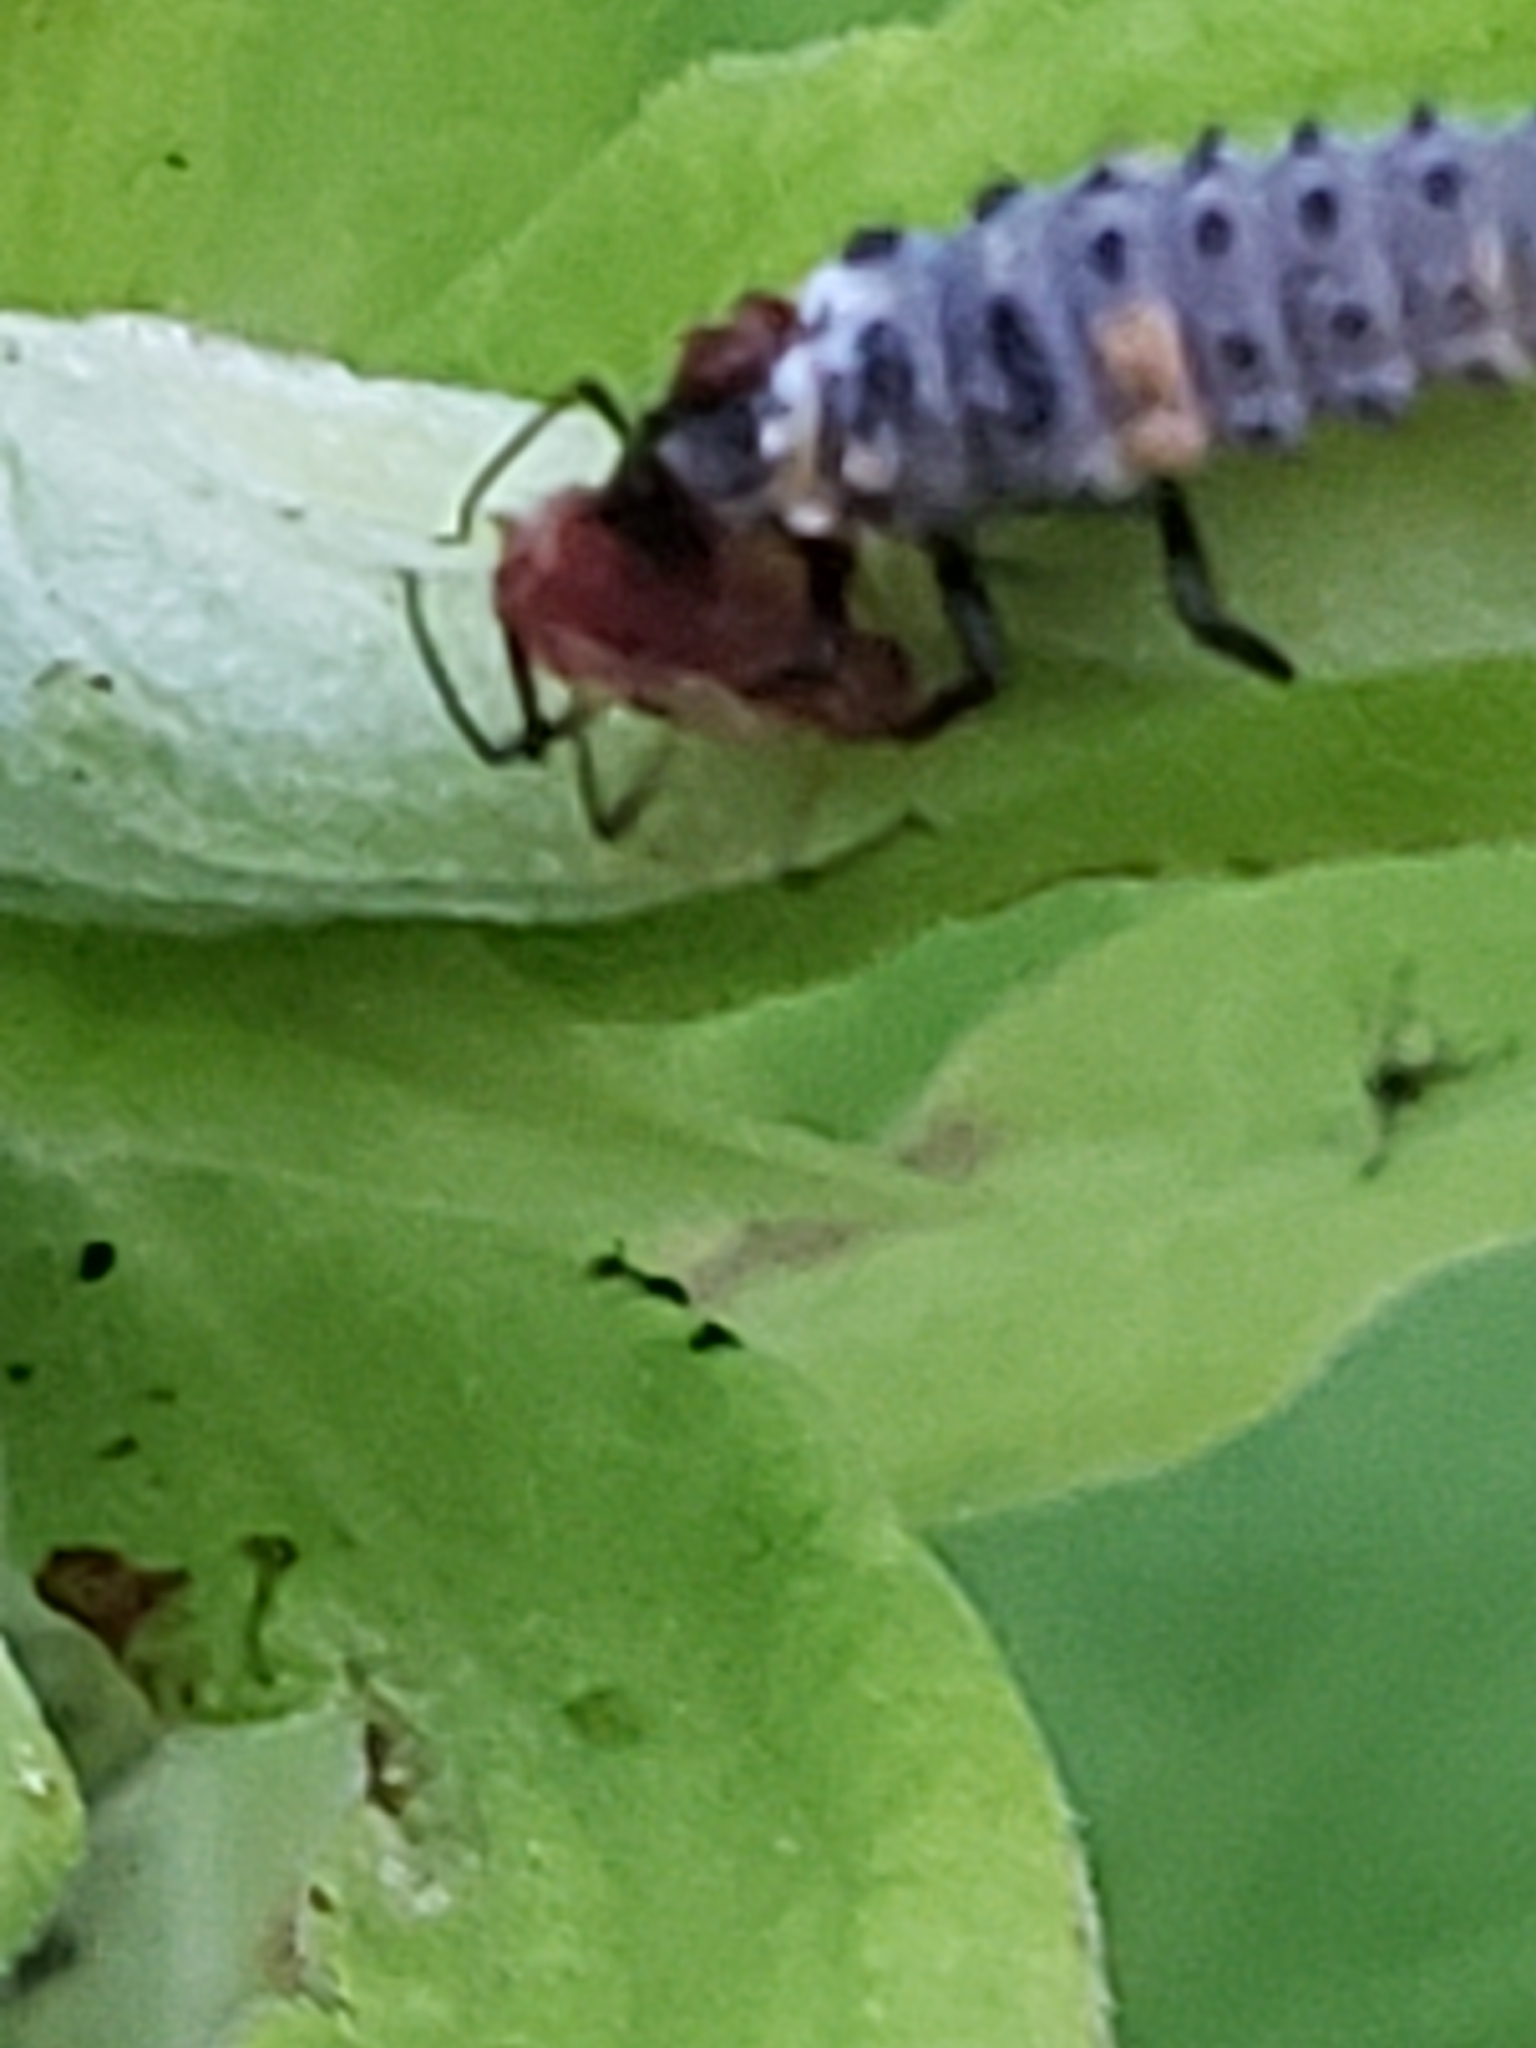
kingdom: Animalia
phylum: Arthropoda
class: Insecta
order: Coleoptera
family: Coccinellidae
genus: Coccinella
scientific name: Coccinella septempunctata
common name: Sevenspotted lady beetle
